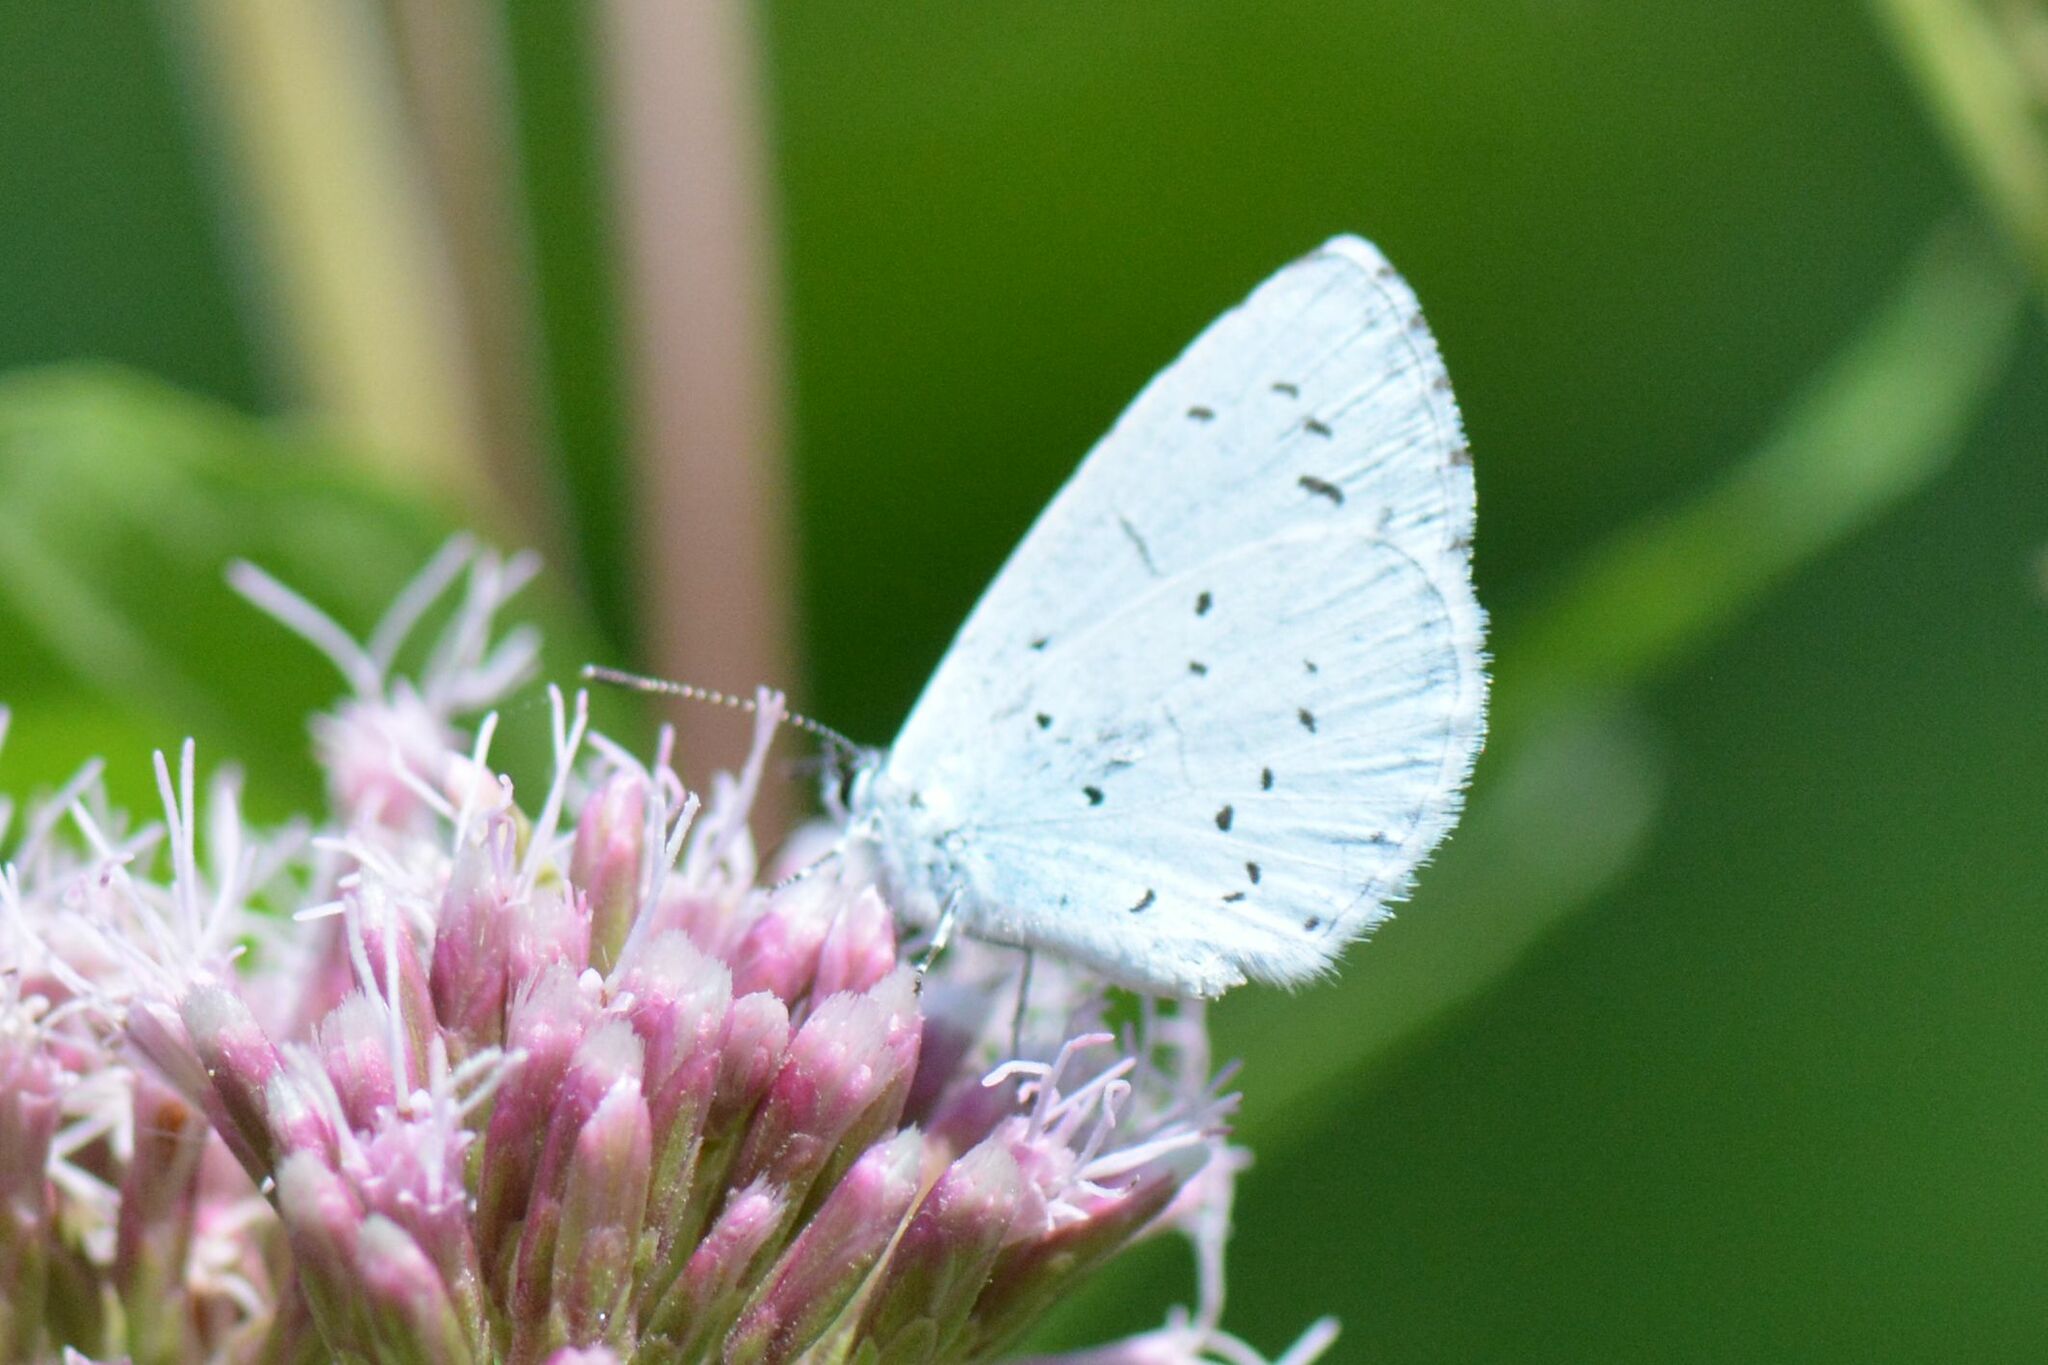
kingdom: Animalia
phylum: Arthropoda
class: Insecta
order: Lepidoptera
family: Lycaenidae
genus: Celastrina
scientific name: Celastrina argiolus
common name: Holly blue
